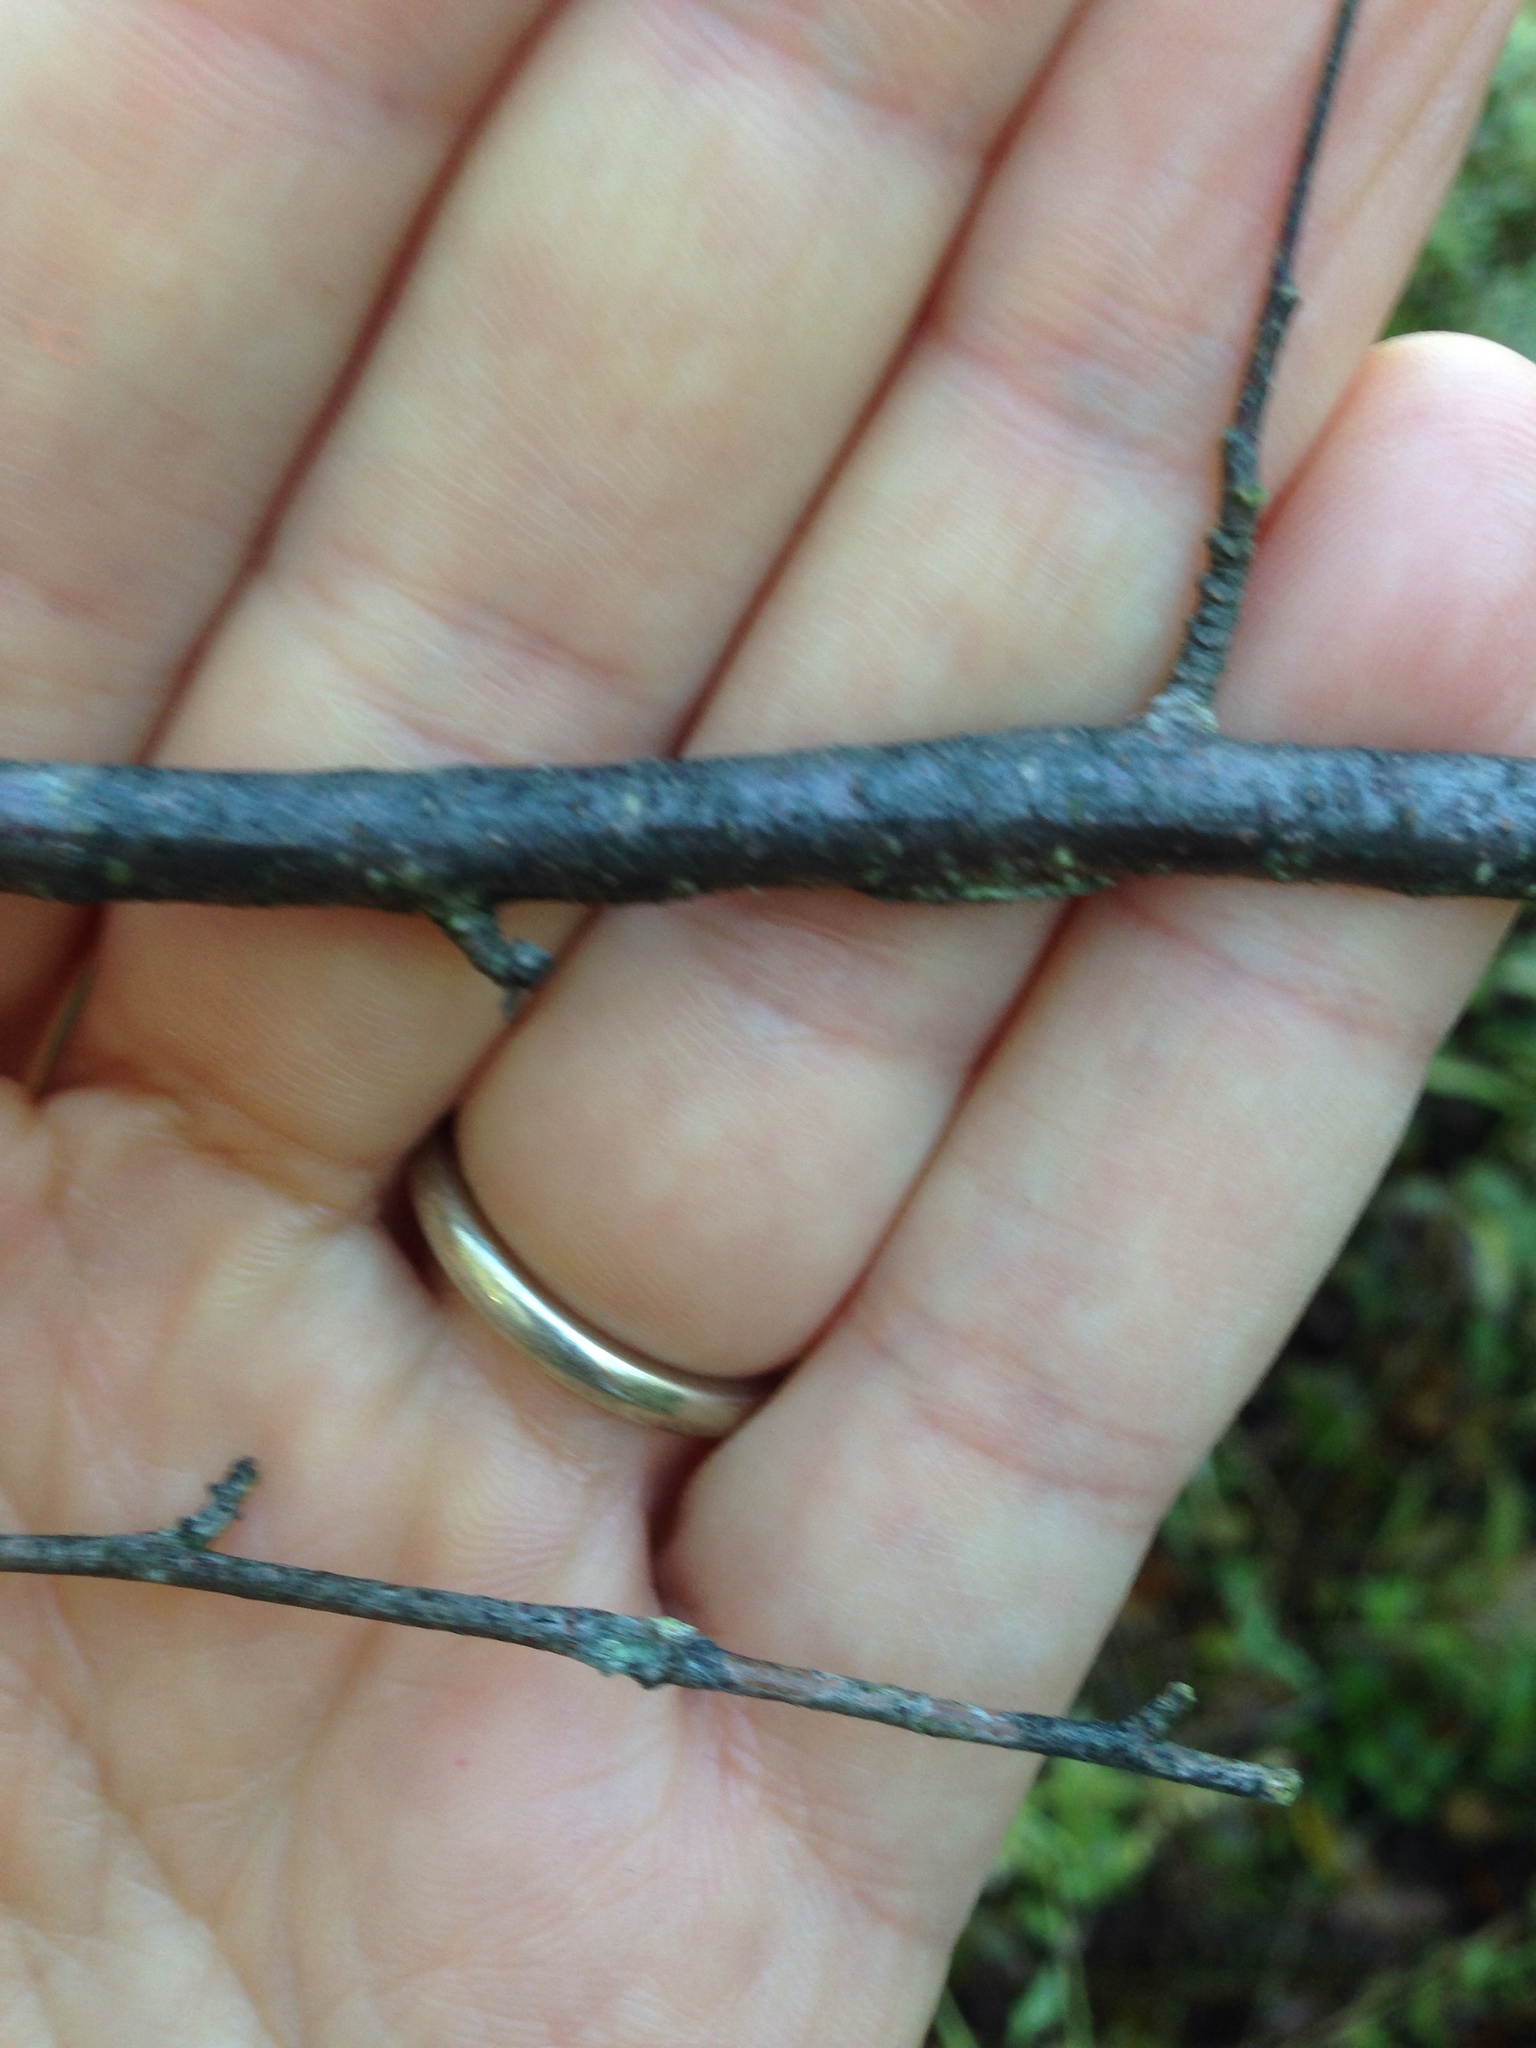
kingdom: Plantae
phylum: Tracheophyta
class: Magnoliopsida
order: Fagales
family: Betulaceae
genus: Betula
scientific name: Betula populifolia
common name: Fire birch
